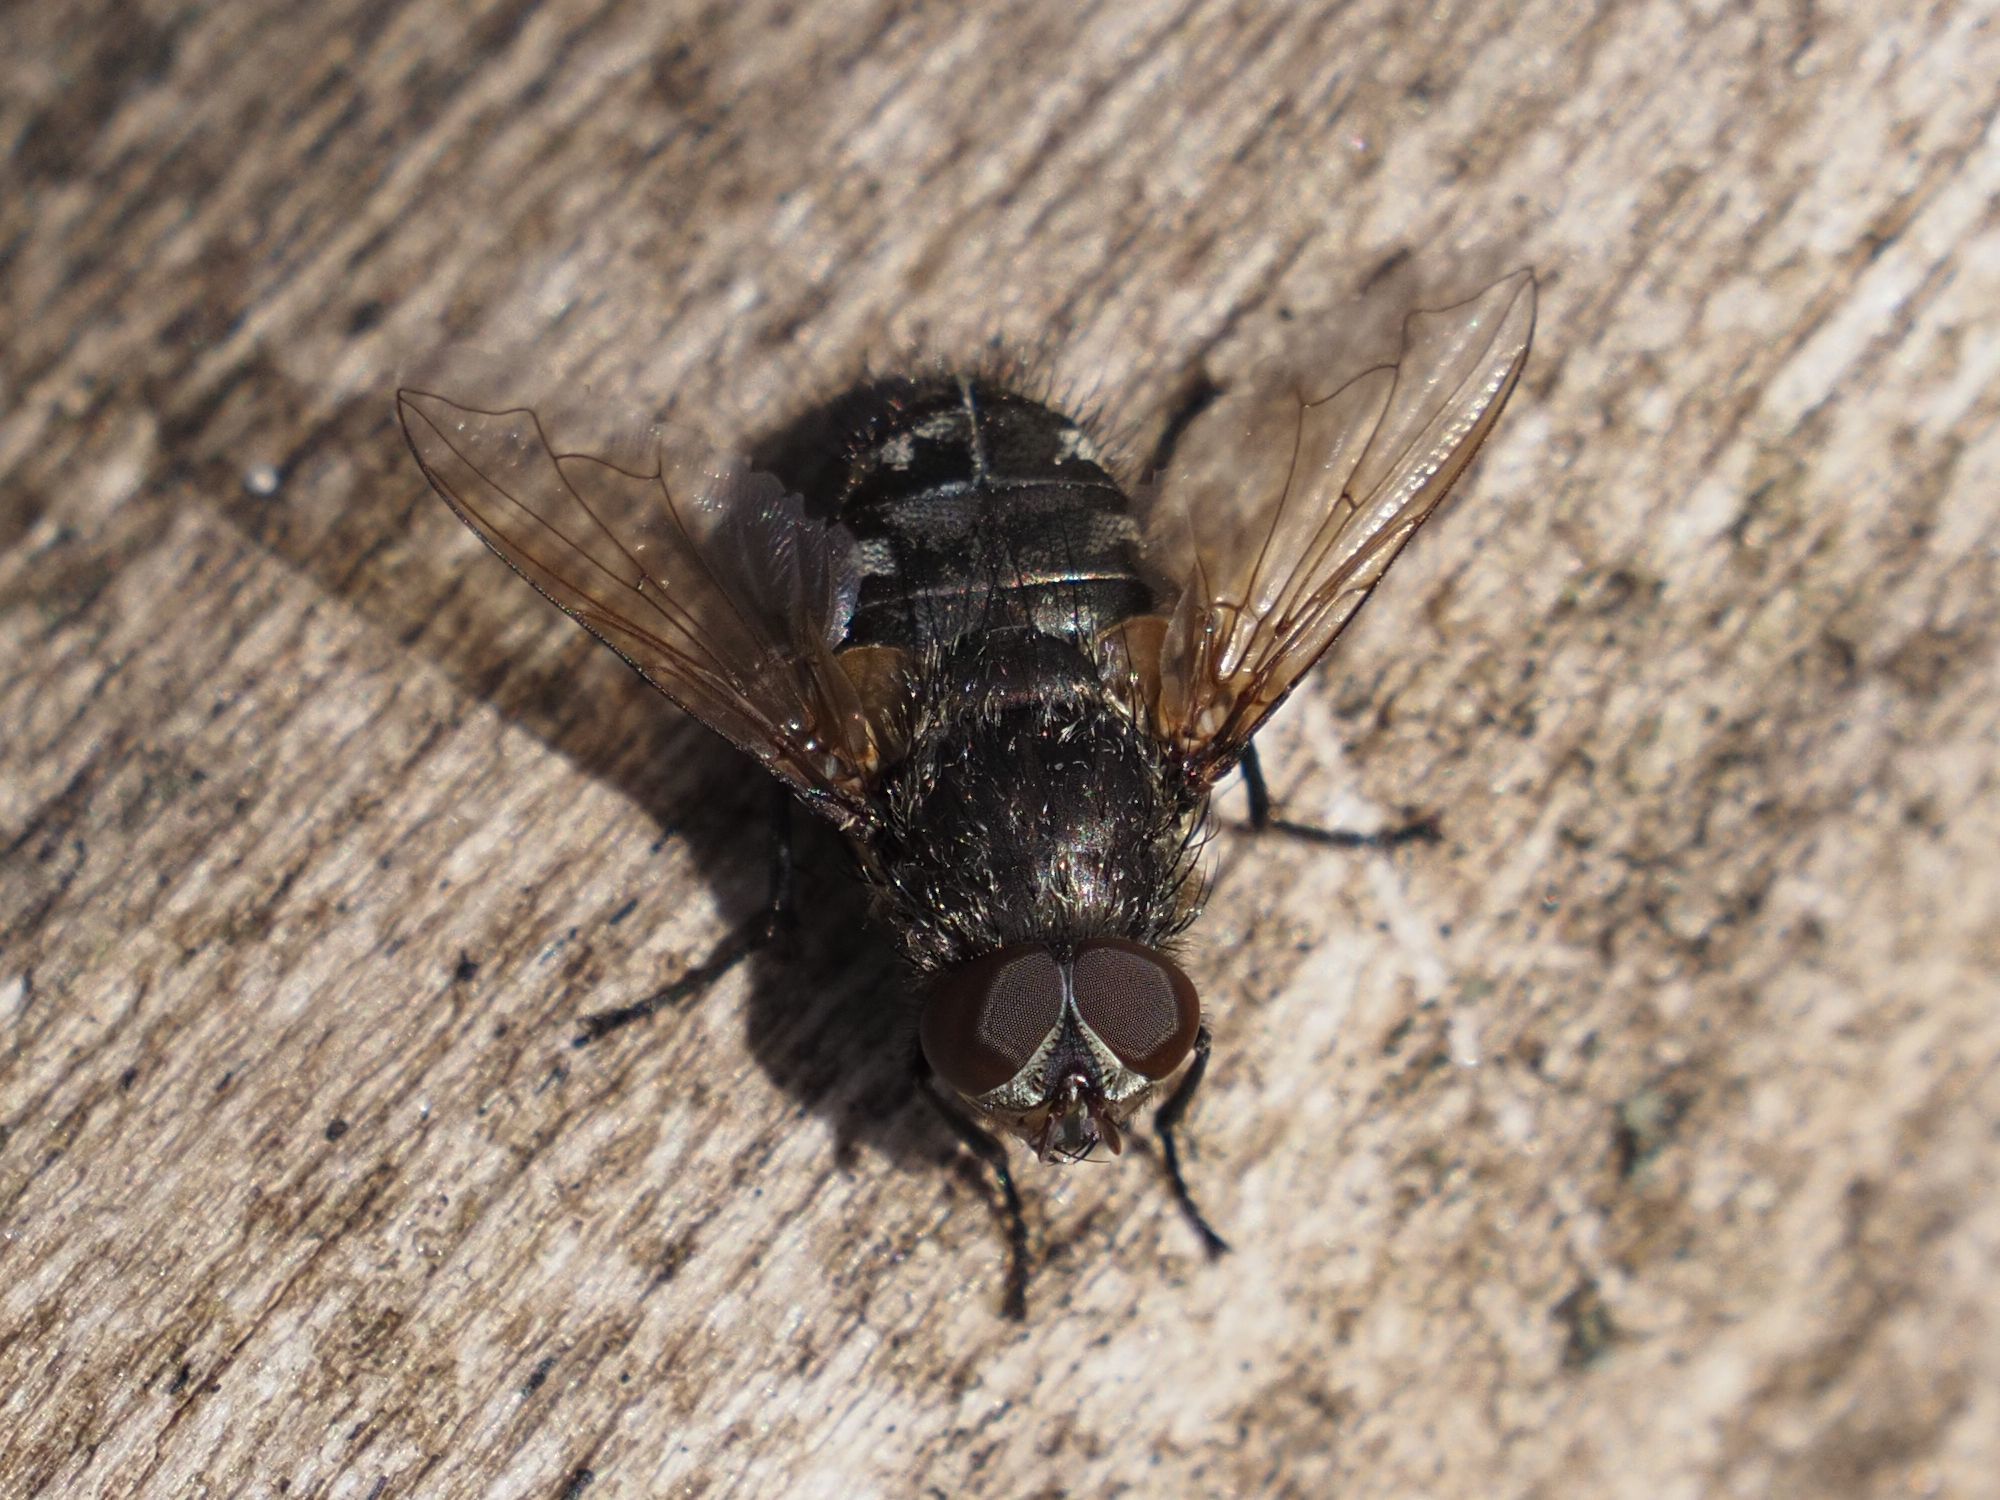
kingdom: Animalia
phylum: Arthropoda
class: Insecta
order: Diptera
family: Polleniidae
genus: Pollenia
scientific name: Pollenia angustigena
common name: Narrow-cheeked clusterfly
